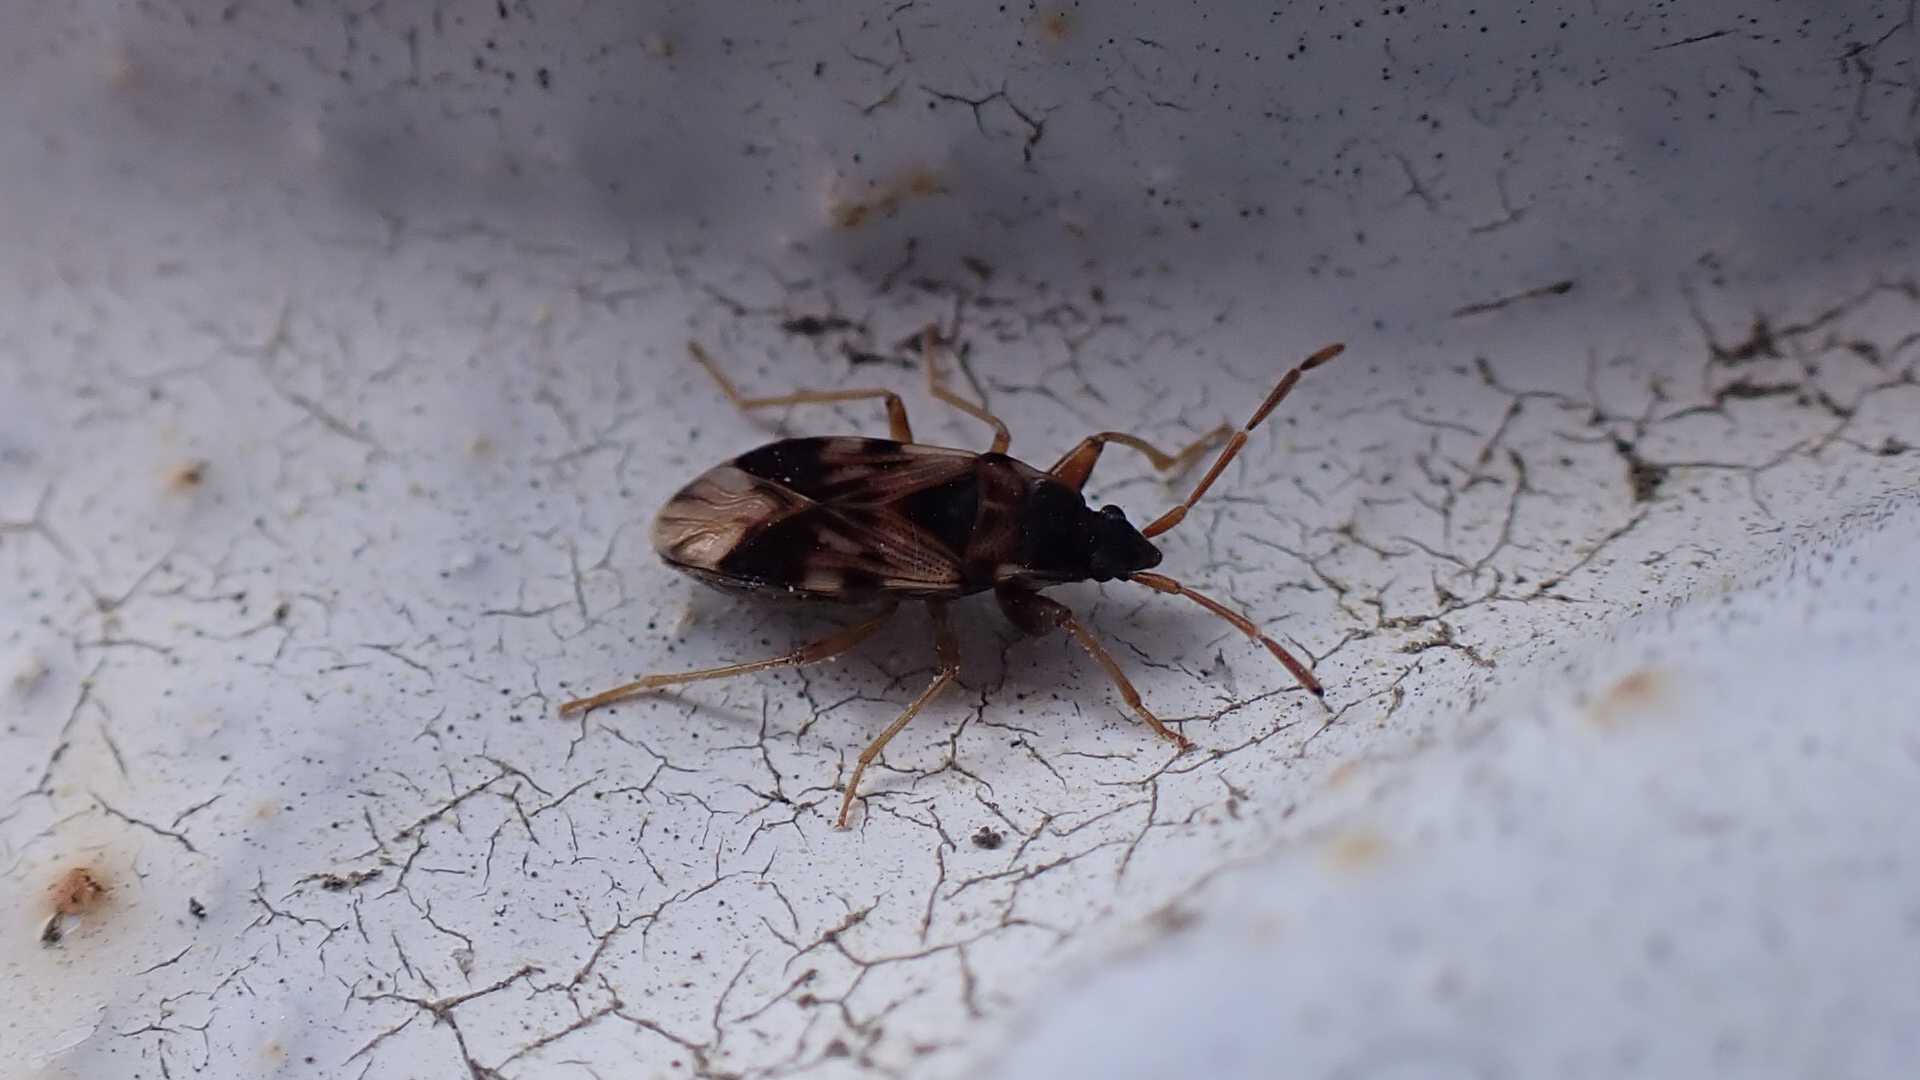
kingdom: Animalia
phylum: Arthropoda
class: Insecta
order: Hemiptera
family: Rhyparochromidae
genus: Scolopostethus
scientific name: Scolopostethus pictus
